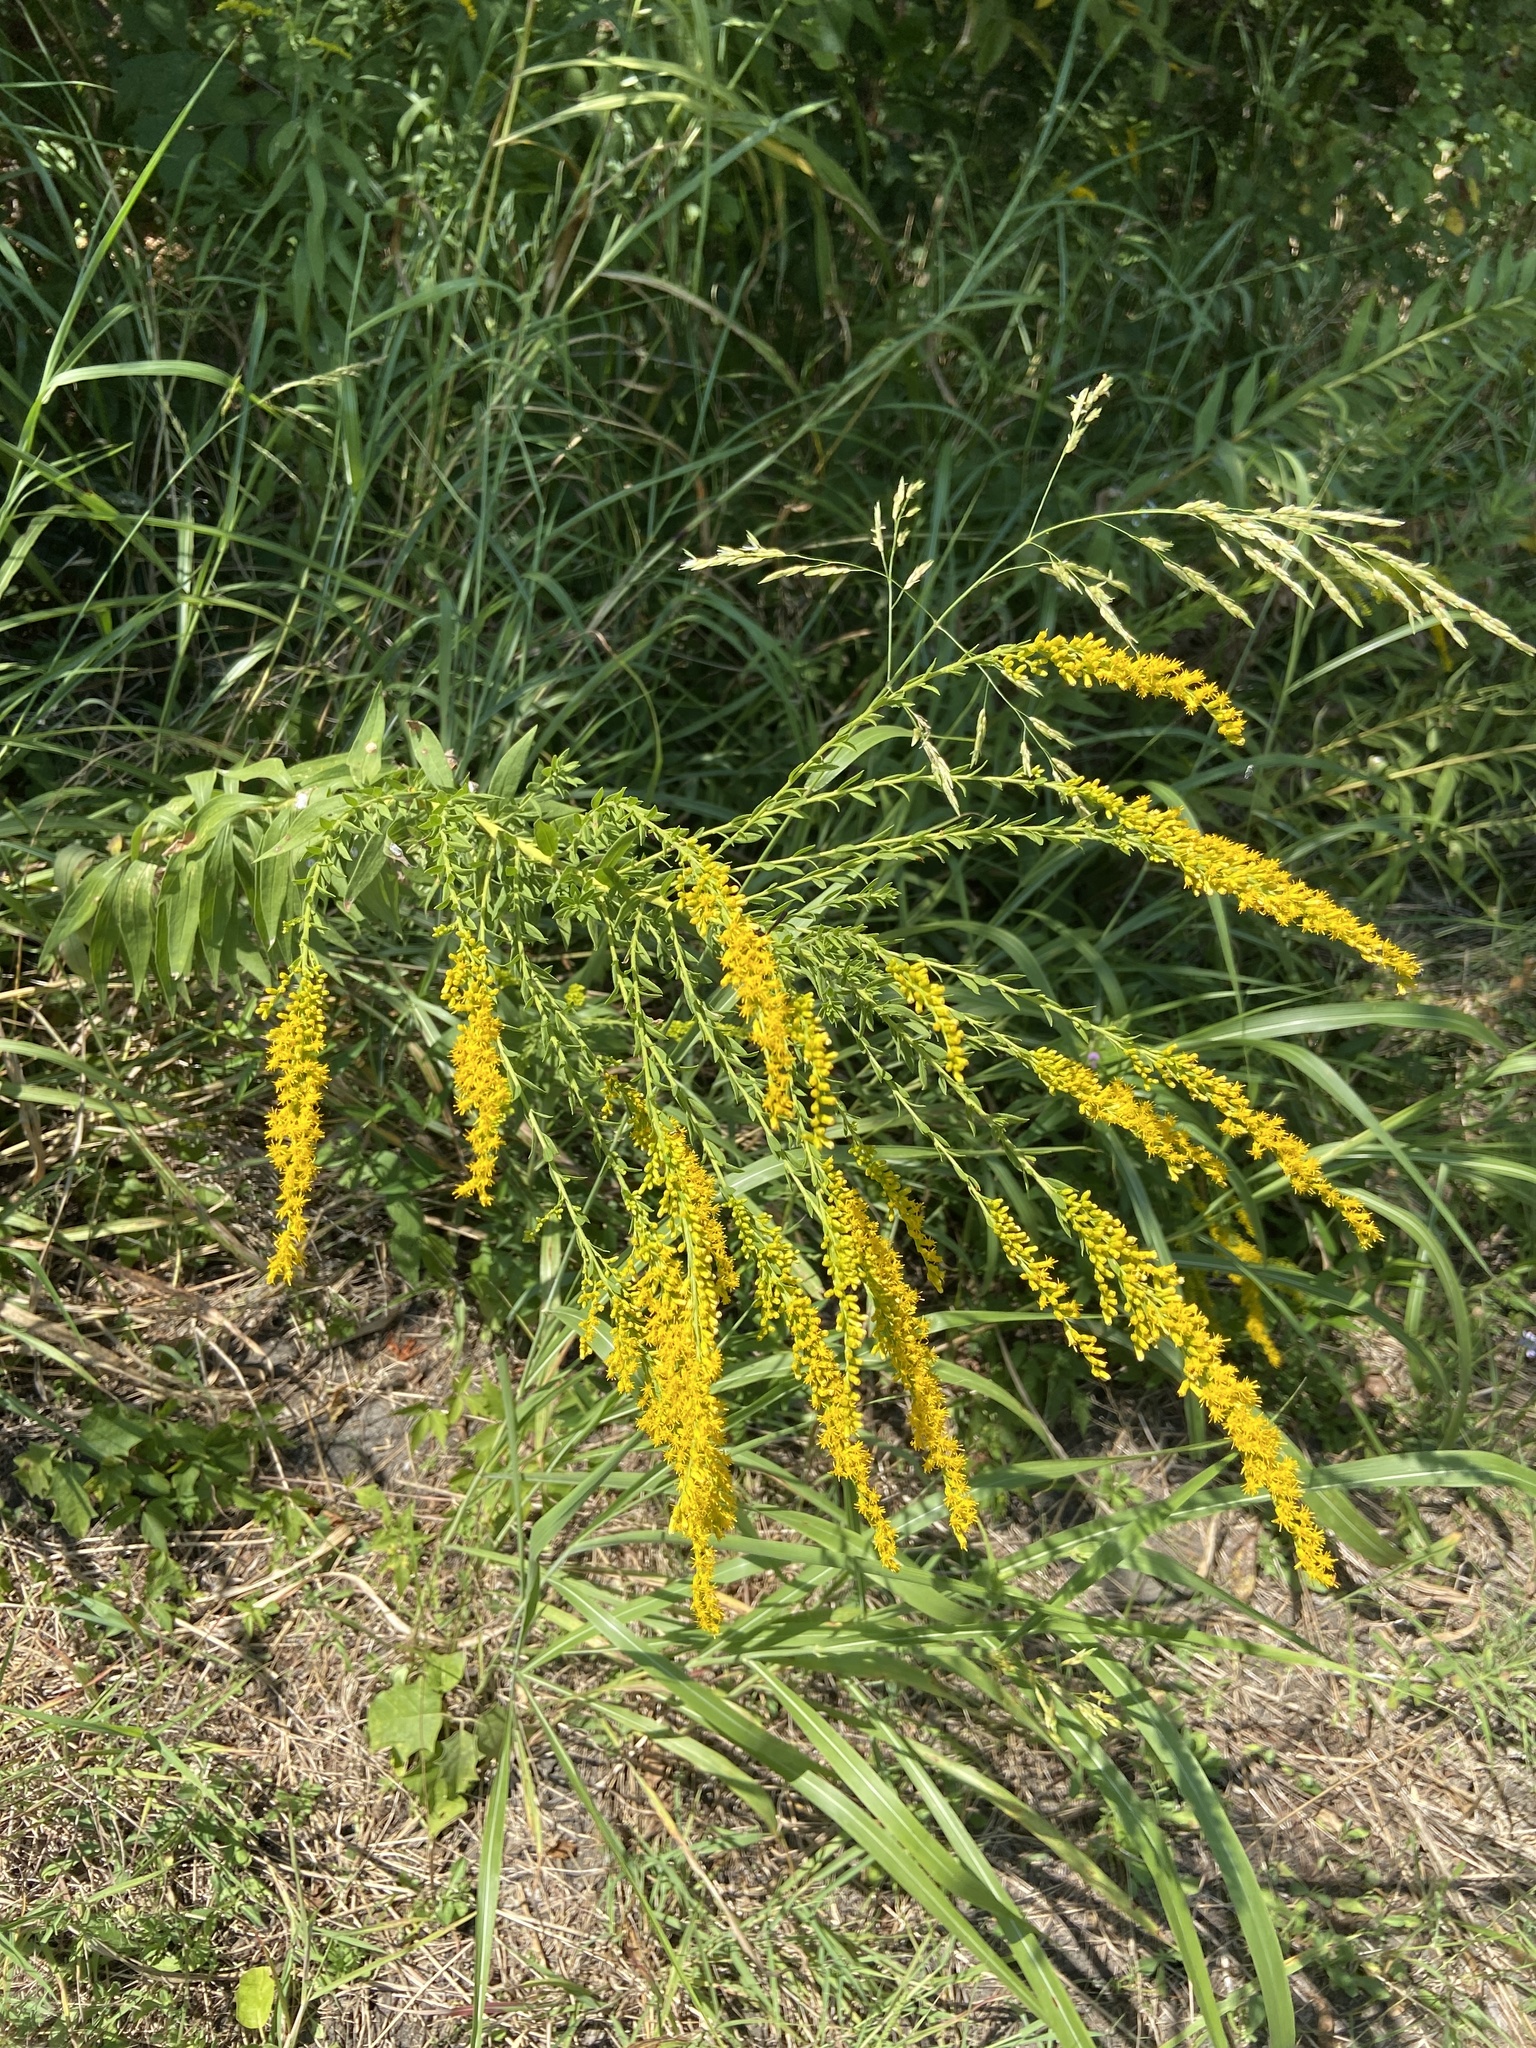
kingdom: Plantae
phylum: Tracheophyta
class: Magnoliopsida
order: Asterales
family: Asteraceae
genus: Solidago
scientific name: Solidago altissima
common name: Late goldenrod
